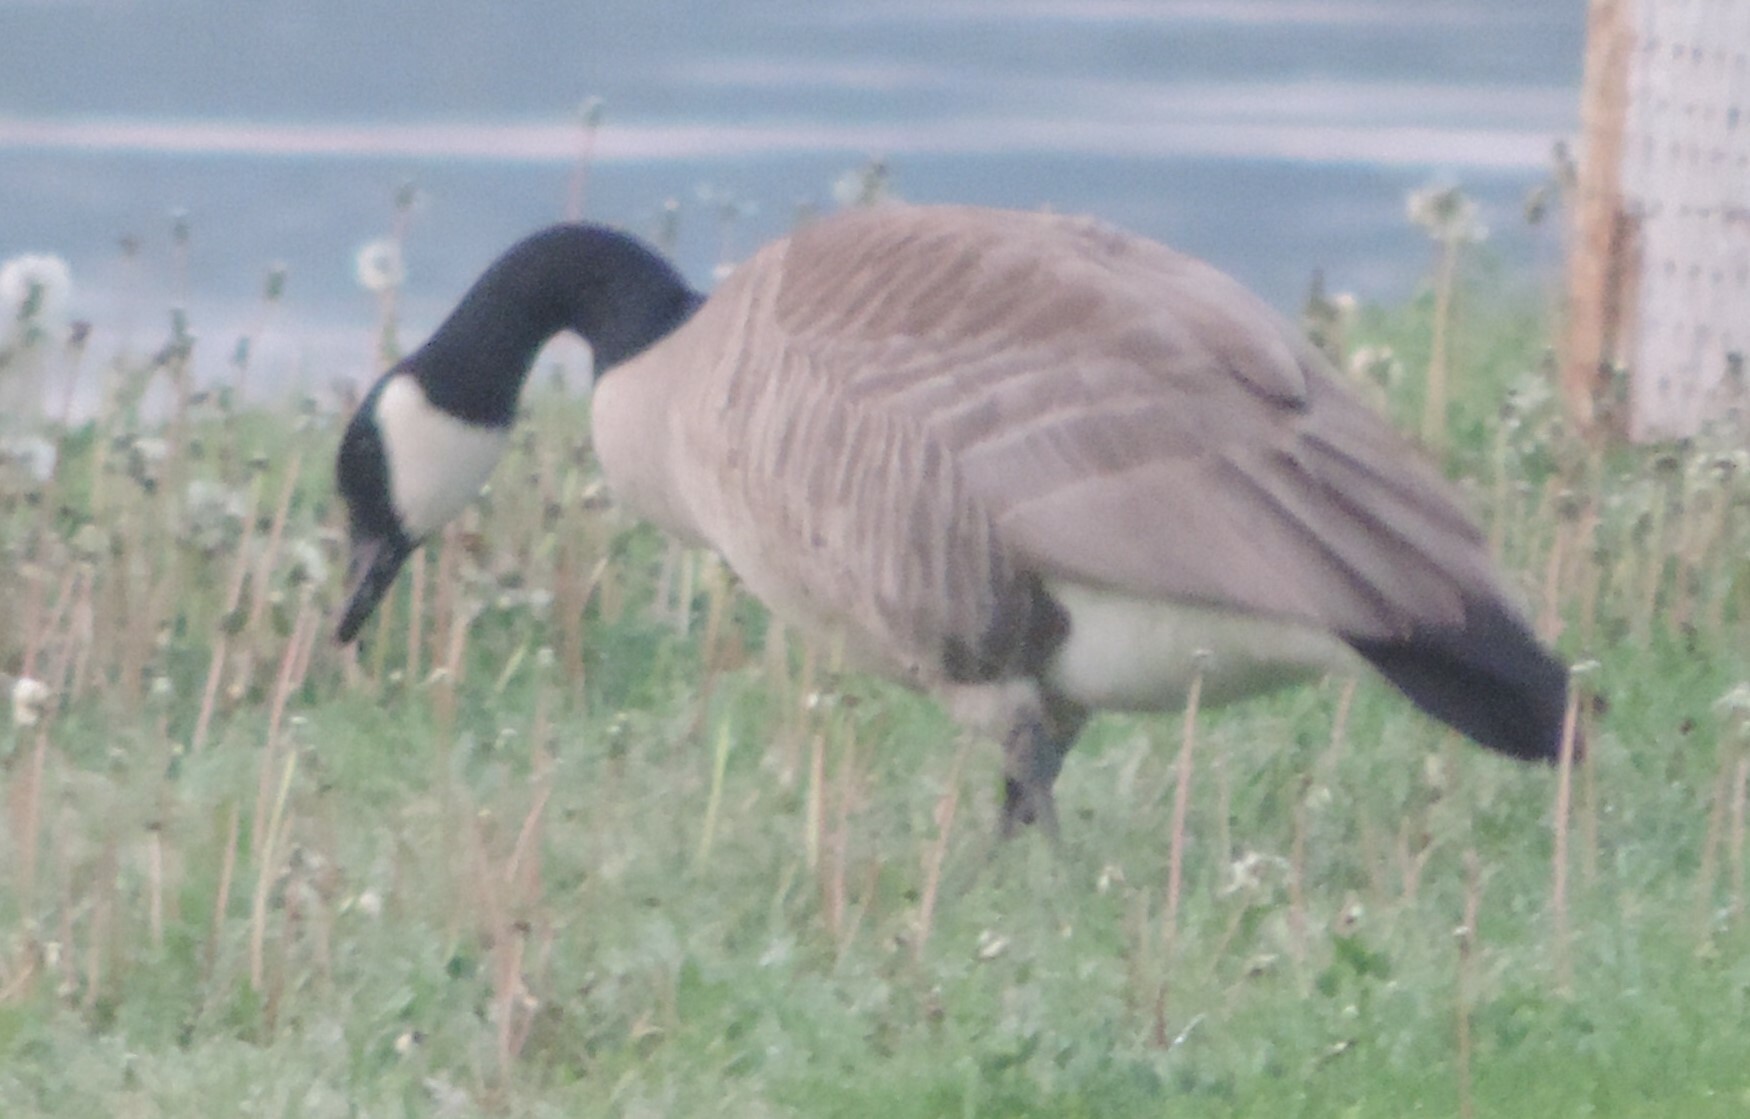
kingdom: Animalia
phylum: Chordata
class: Aves
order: Anseriformes
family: Anatidae
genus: Branta
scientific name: Branta canadensis
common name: Canada goose
